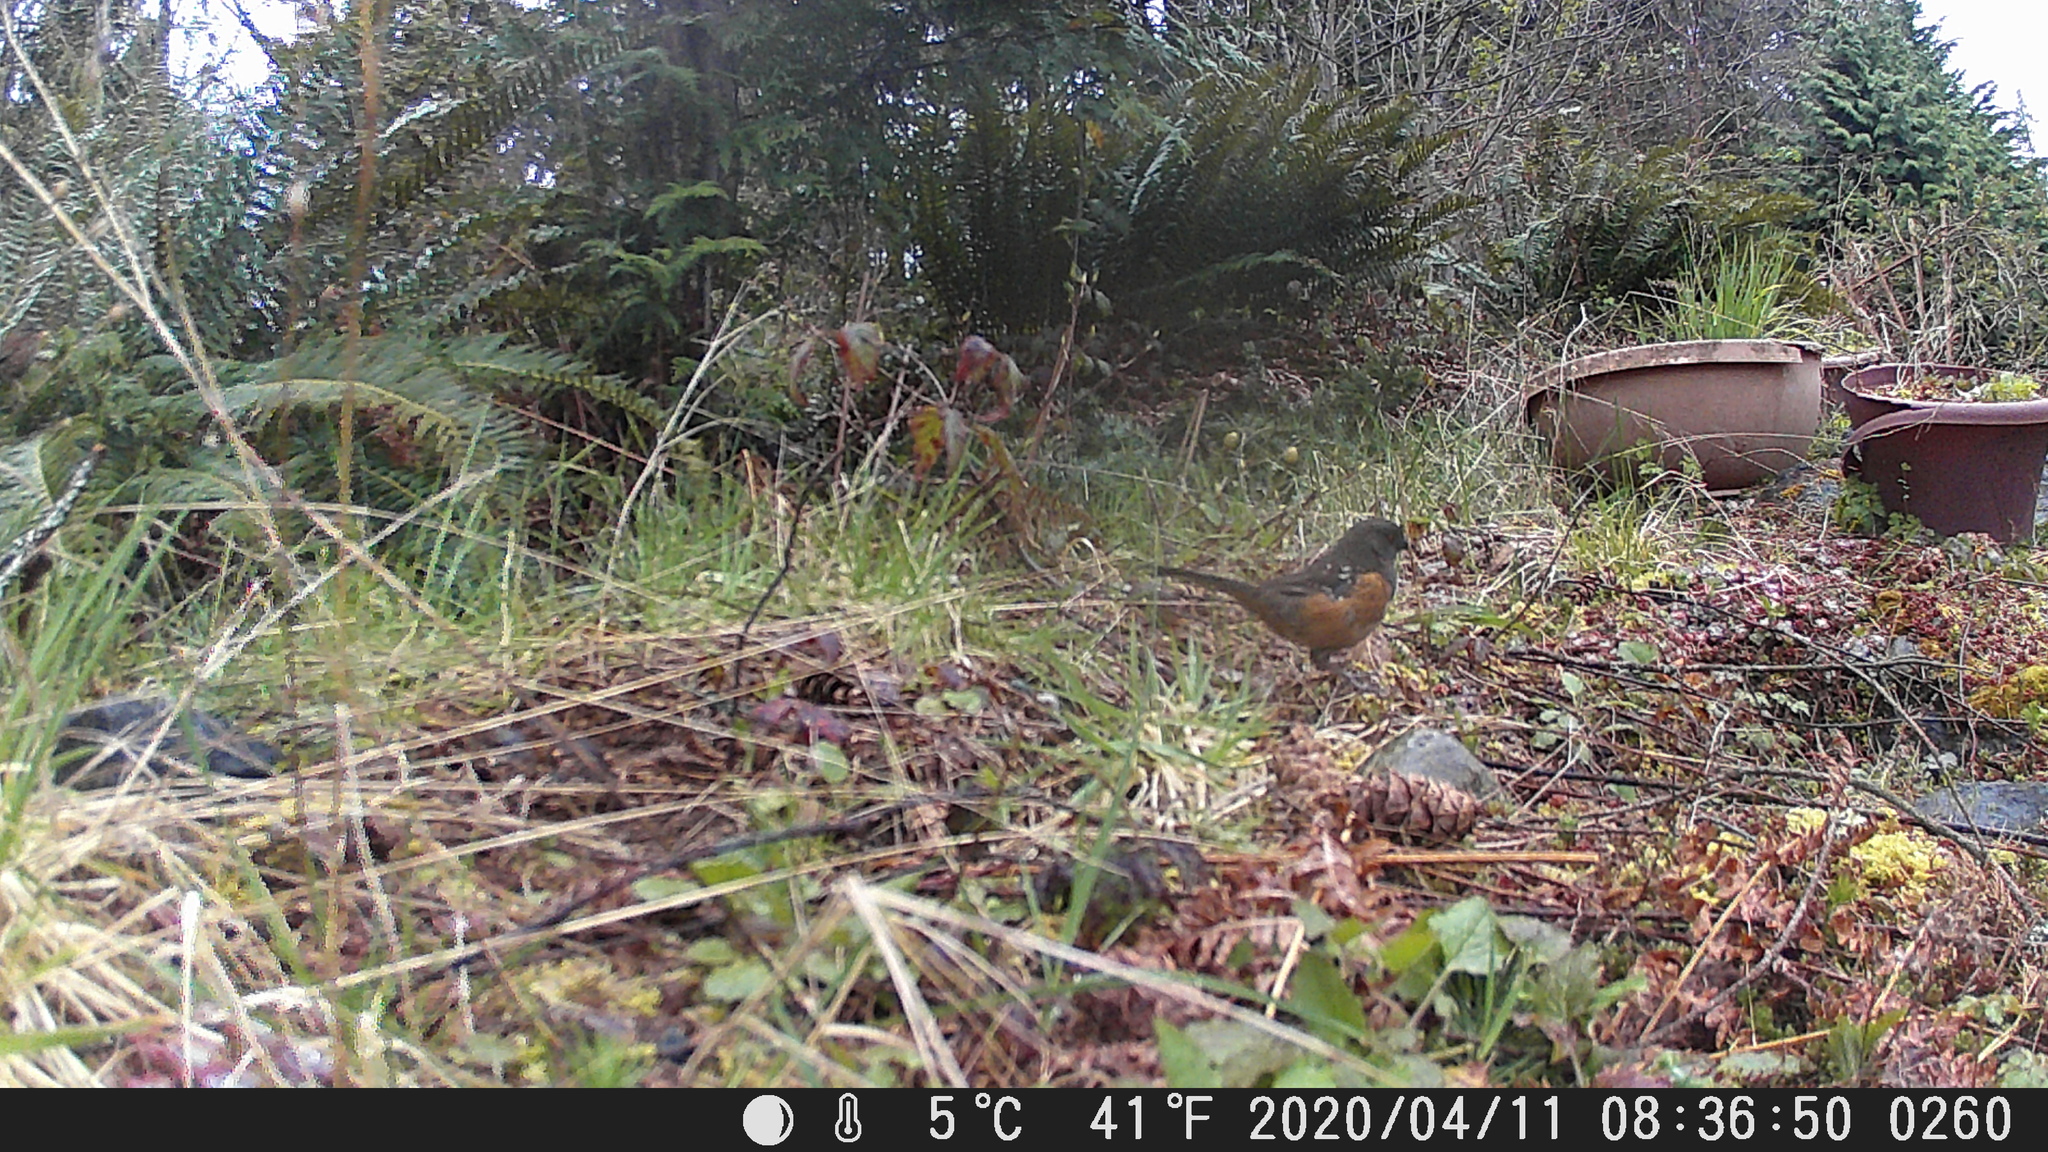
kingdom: Animalia
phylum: Chordata
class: Aves
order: Passeriformes
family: Passerellidae
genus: Pipilo
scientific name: Pipilo maculatus
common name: Spotted towhee
